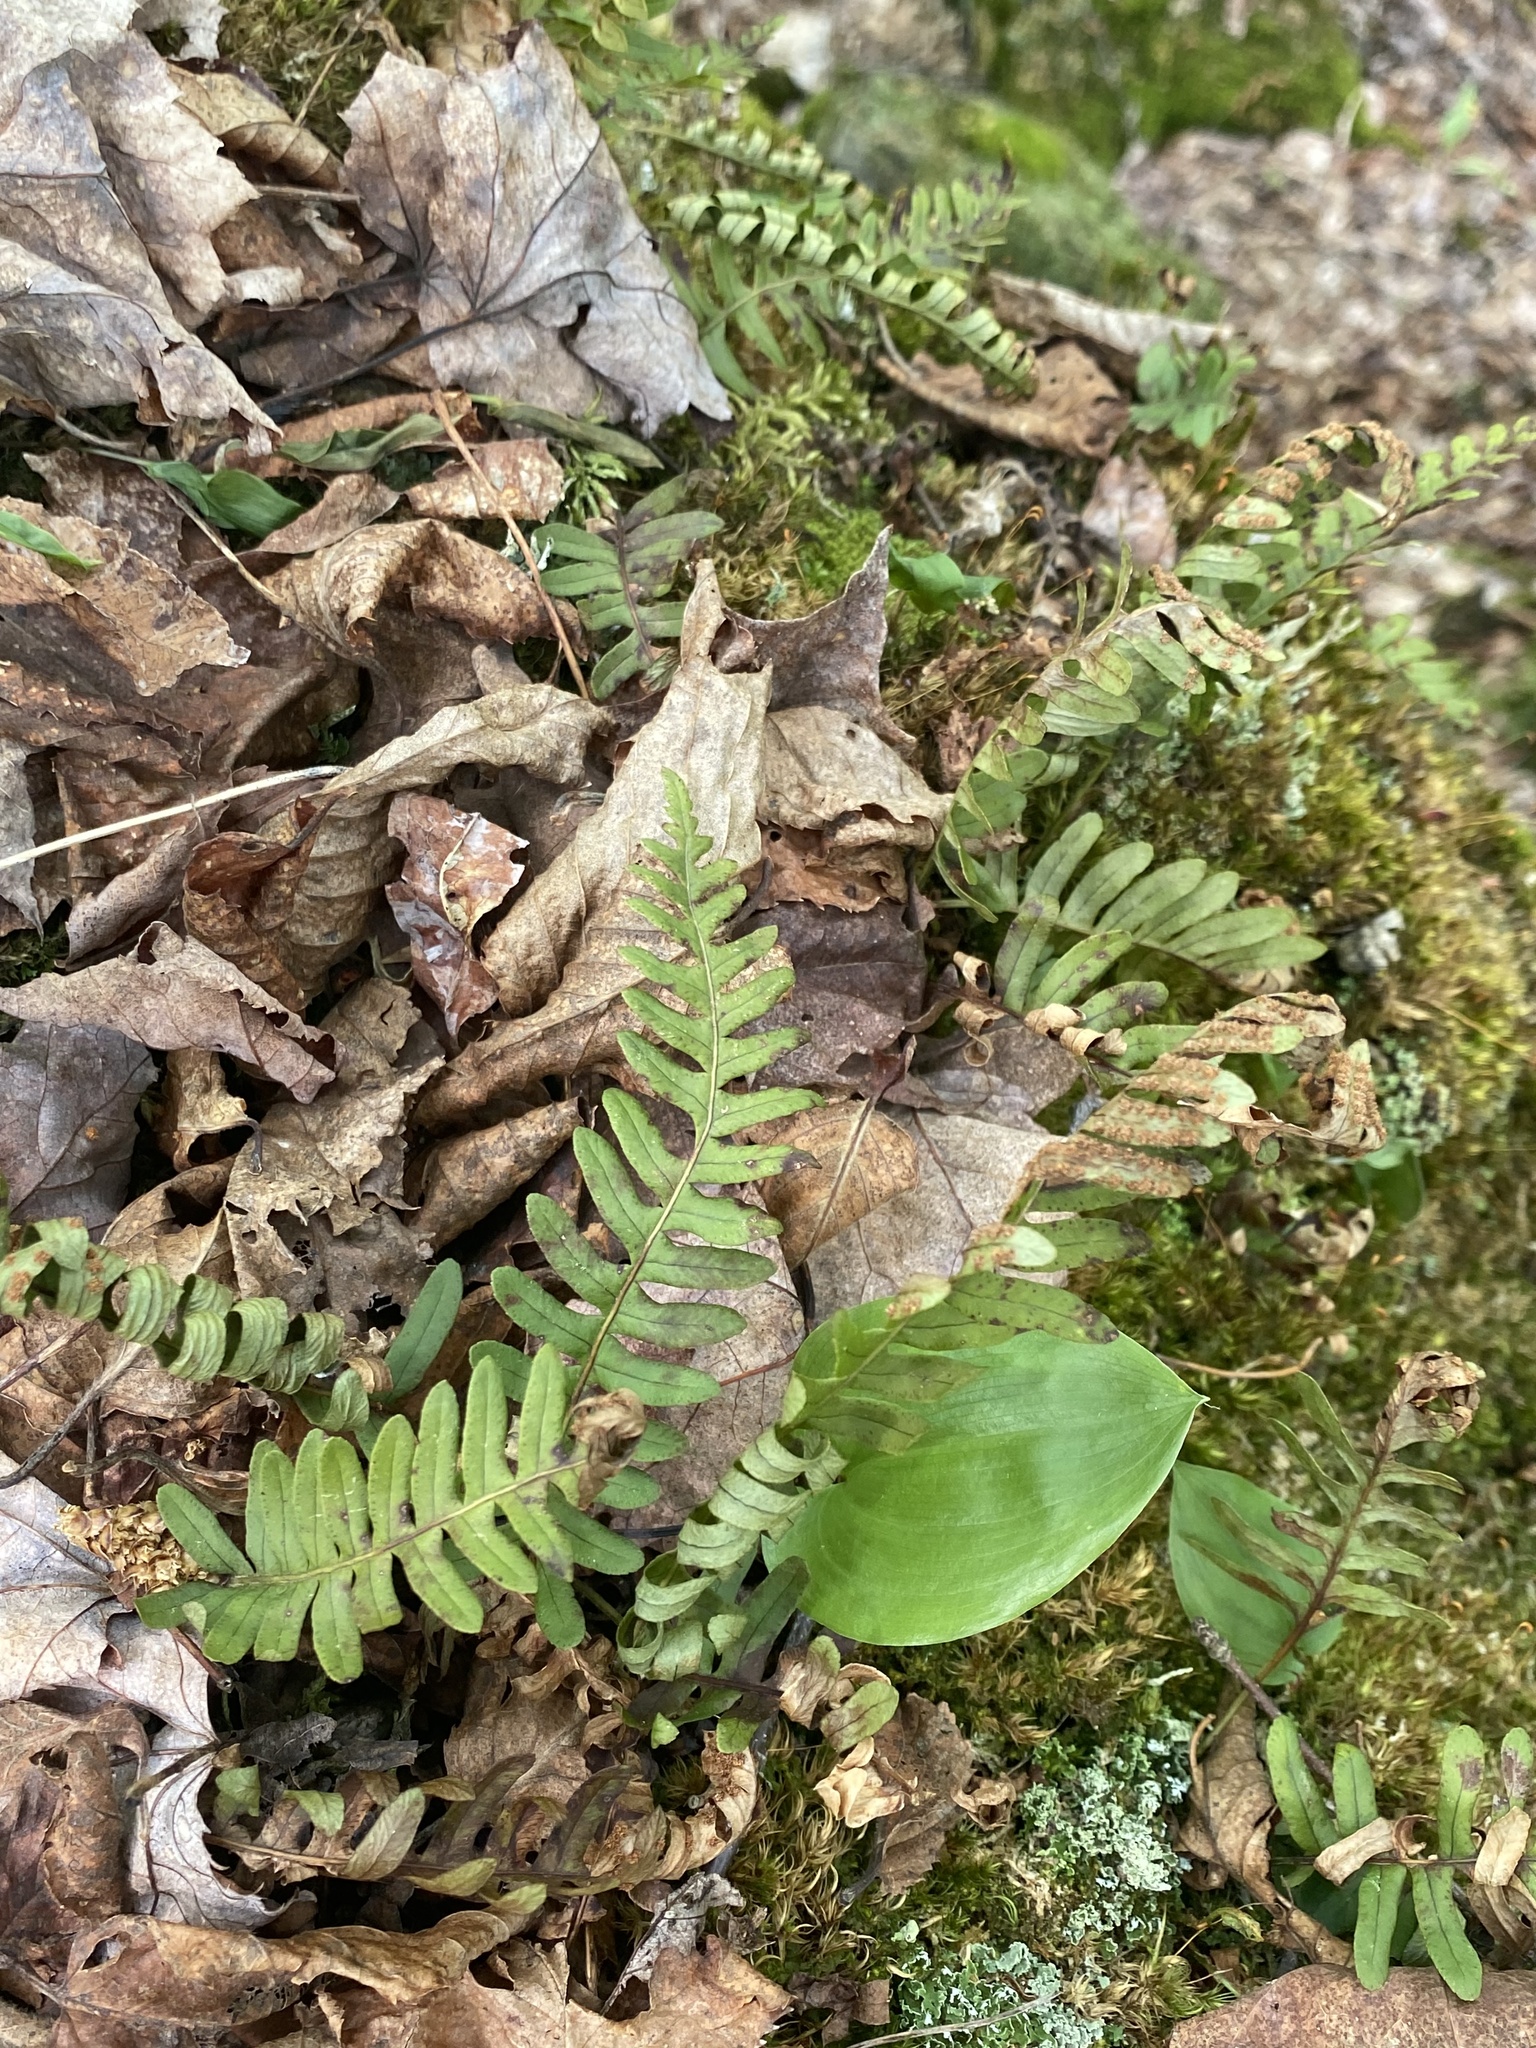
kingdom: Plantae
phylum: Tracheophyta
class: Polypodiopsida
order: Polypodiales
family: Polypodiaceae
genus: Polypodium
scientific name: Polypodium virginianum
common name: American wall fern
